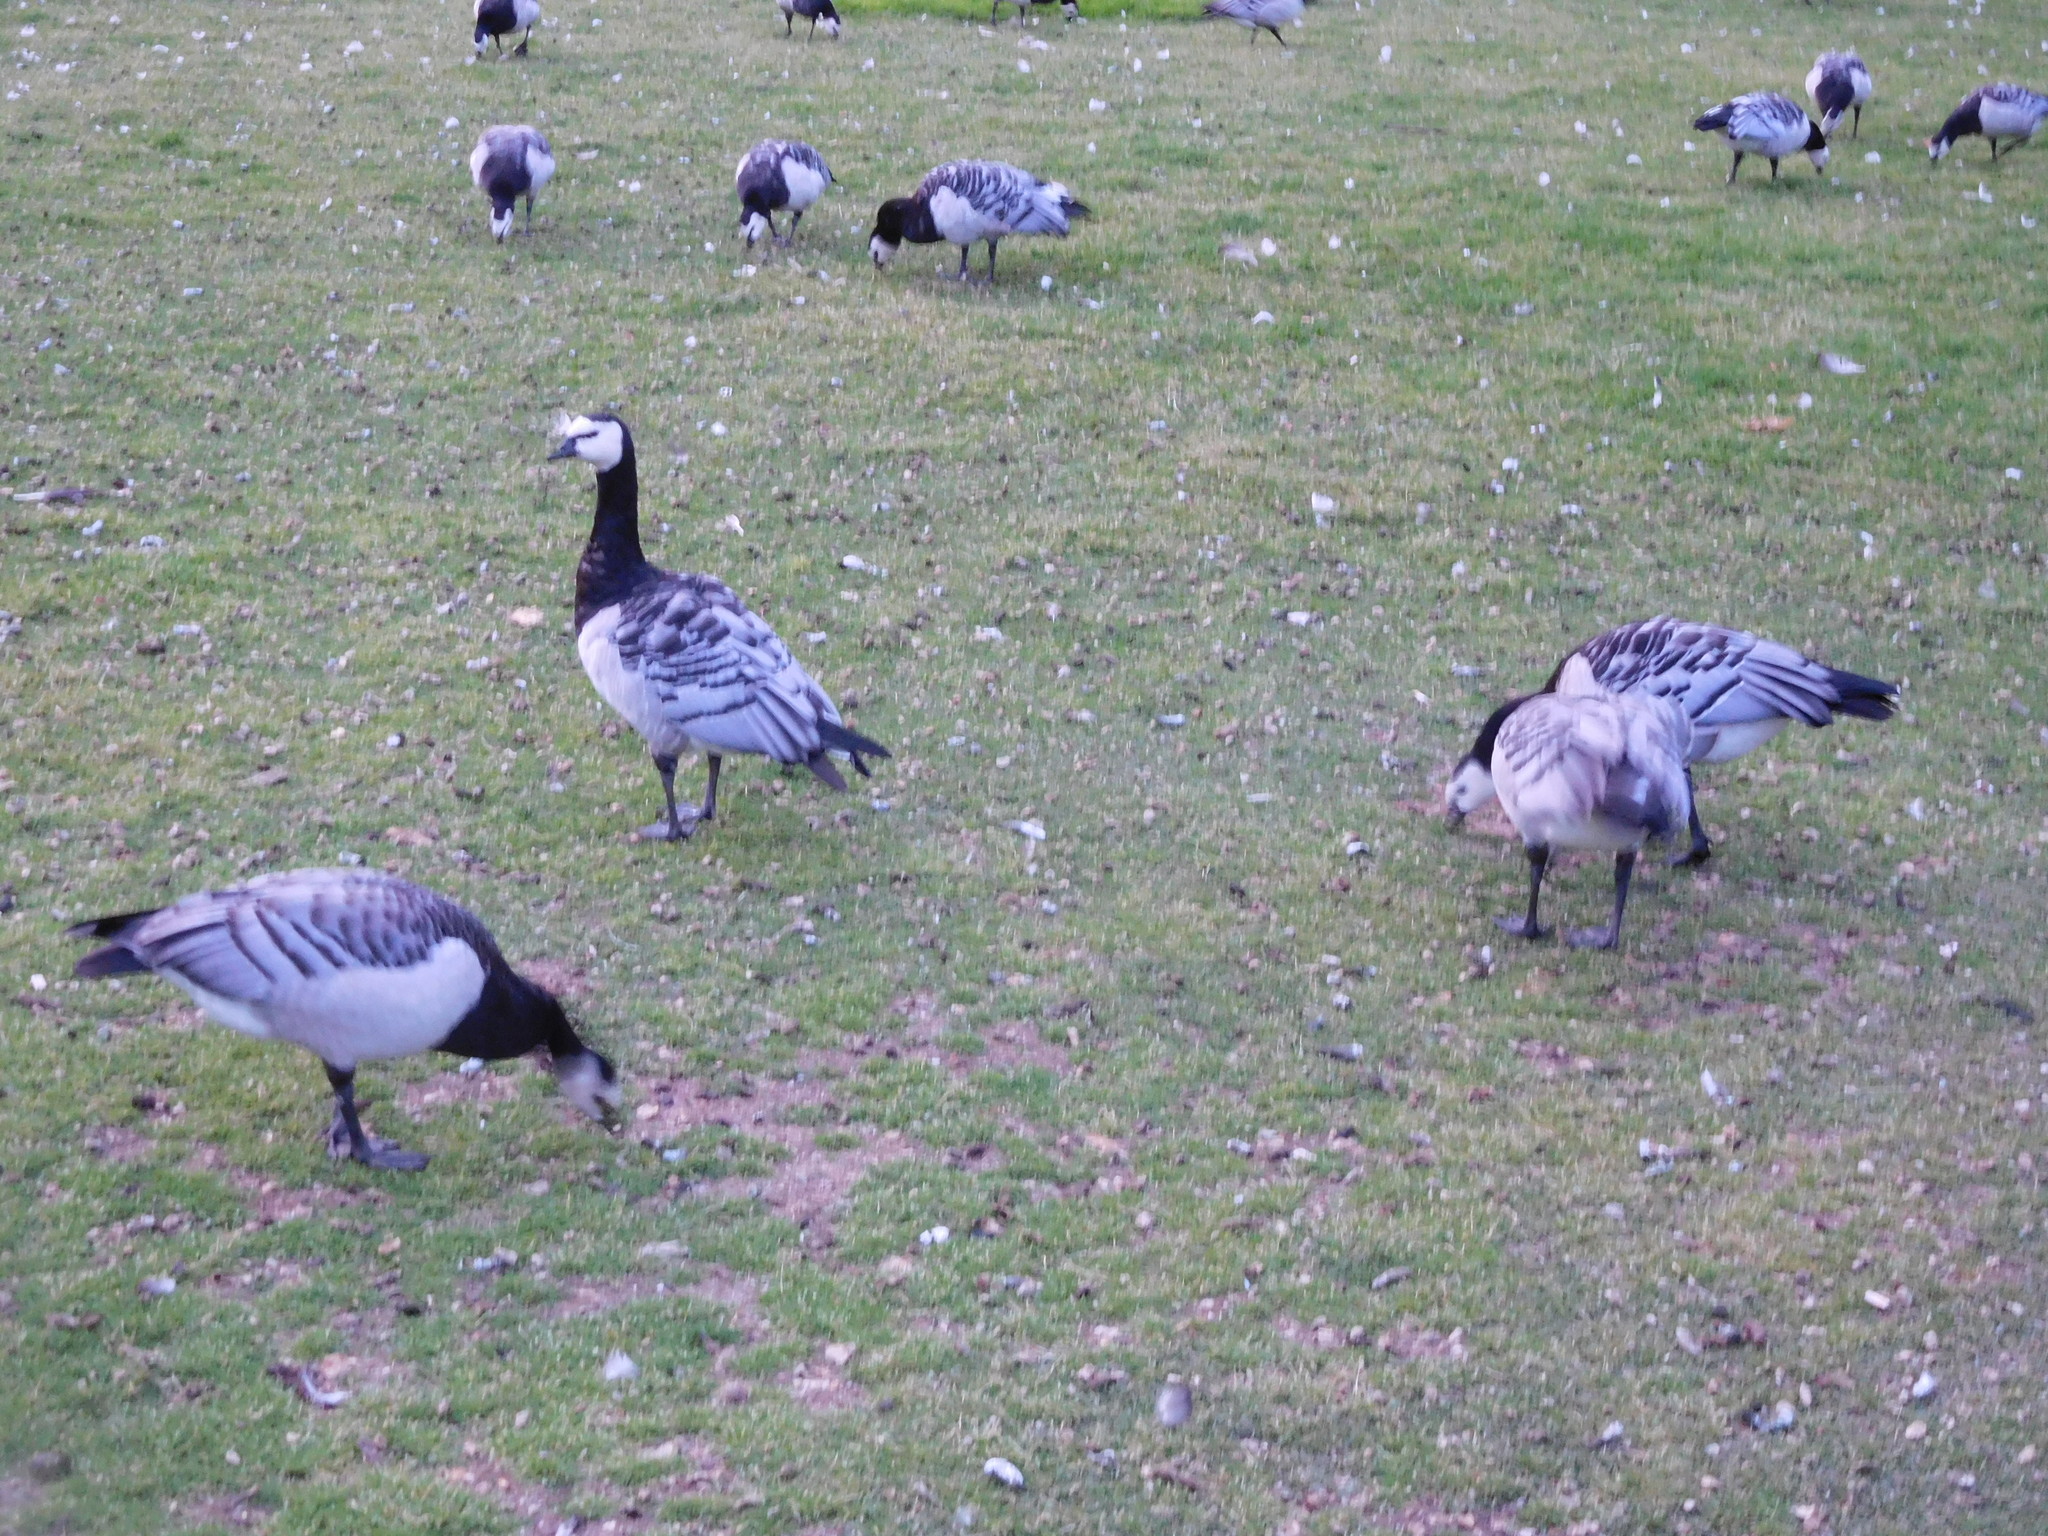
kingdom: Animalia
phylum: Chordata
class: Aves
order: Anseriformes
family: Anatidae
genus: Branta
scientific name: Branta leucopsis
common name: Barnacle goose
